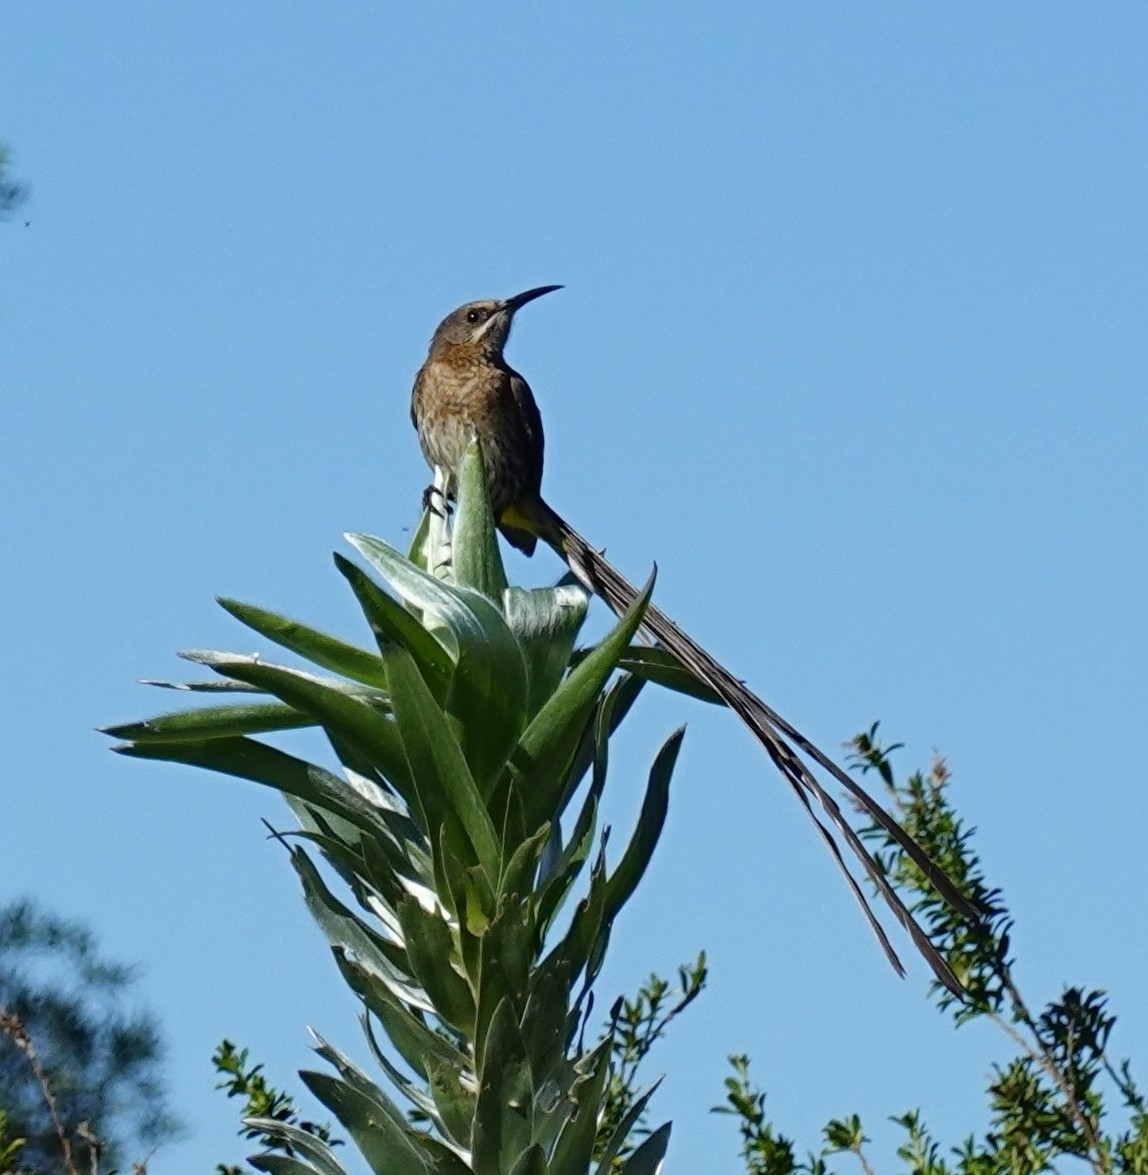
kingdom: Animalia
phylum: Chordata
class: Aves
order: Passeriformes
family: Promeropidae
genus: Promerops
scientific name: Promerops cafer
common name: Cape sugarbird
